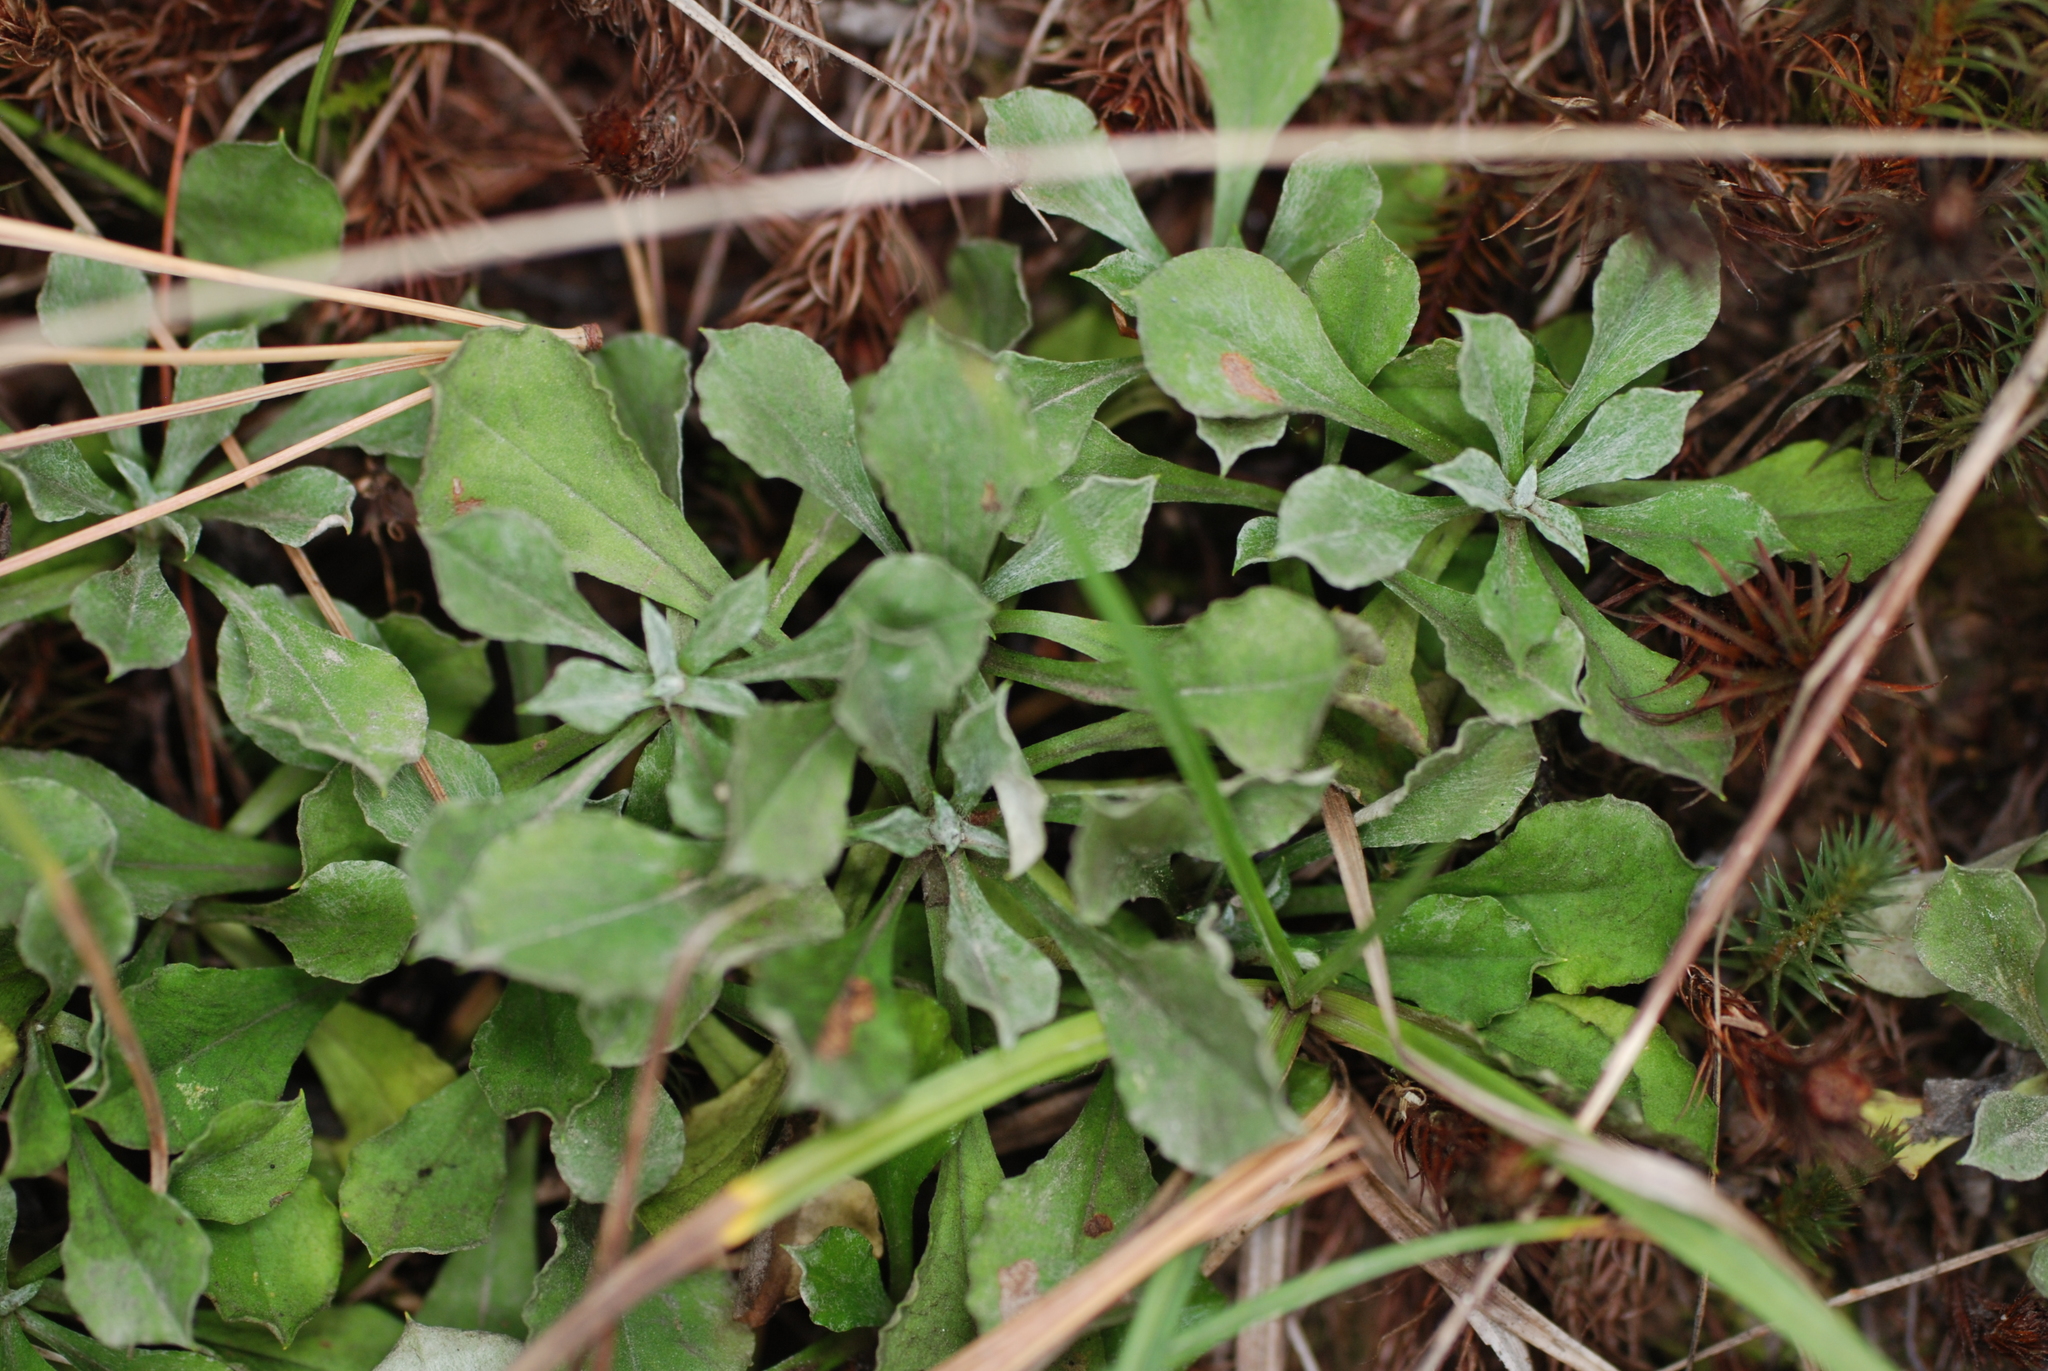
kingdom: Plantae
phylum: Tracheophyta
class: Magnoliopsida
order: Asterales
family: Asteraceae
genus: Antennaria
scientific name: Antennaria howellii
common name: Howell's pussytoes
